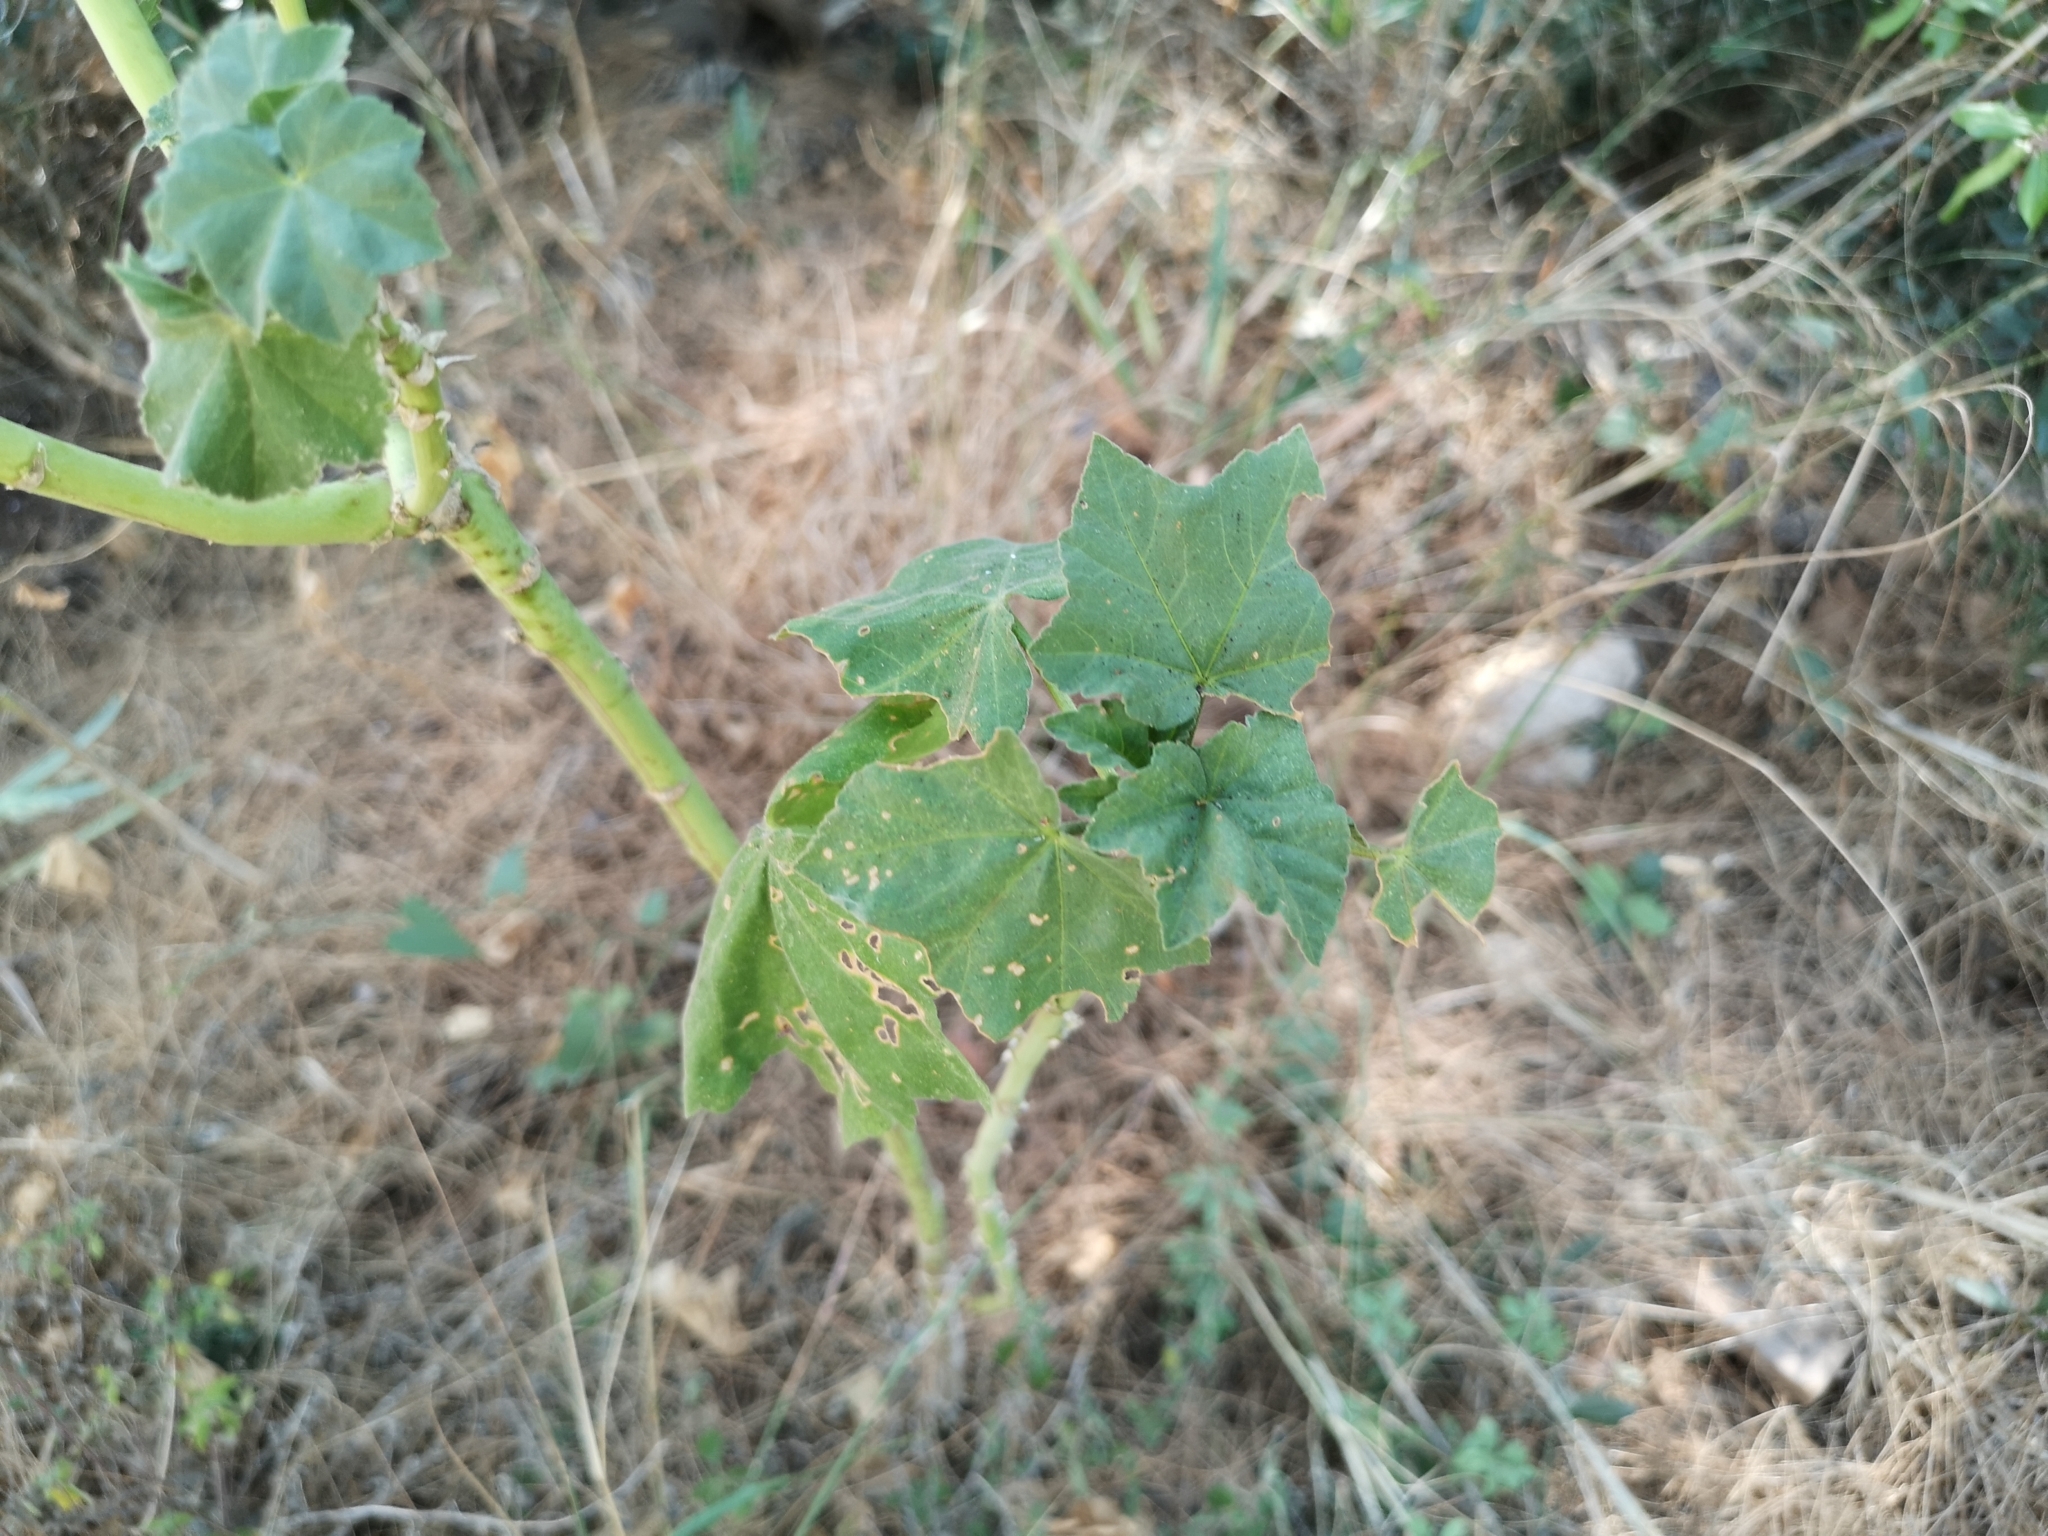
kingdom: Plantae
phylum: Tracheophyta
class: Magnoliopsida
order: Malvales
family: Malvaceae
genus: Malva
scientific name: Malva arborea
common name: Tree mallow
